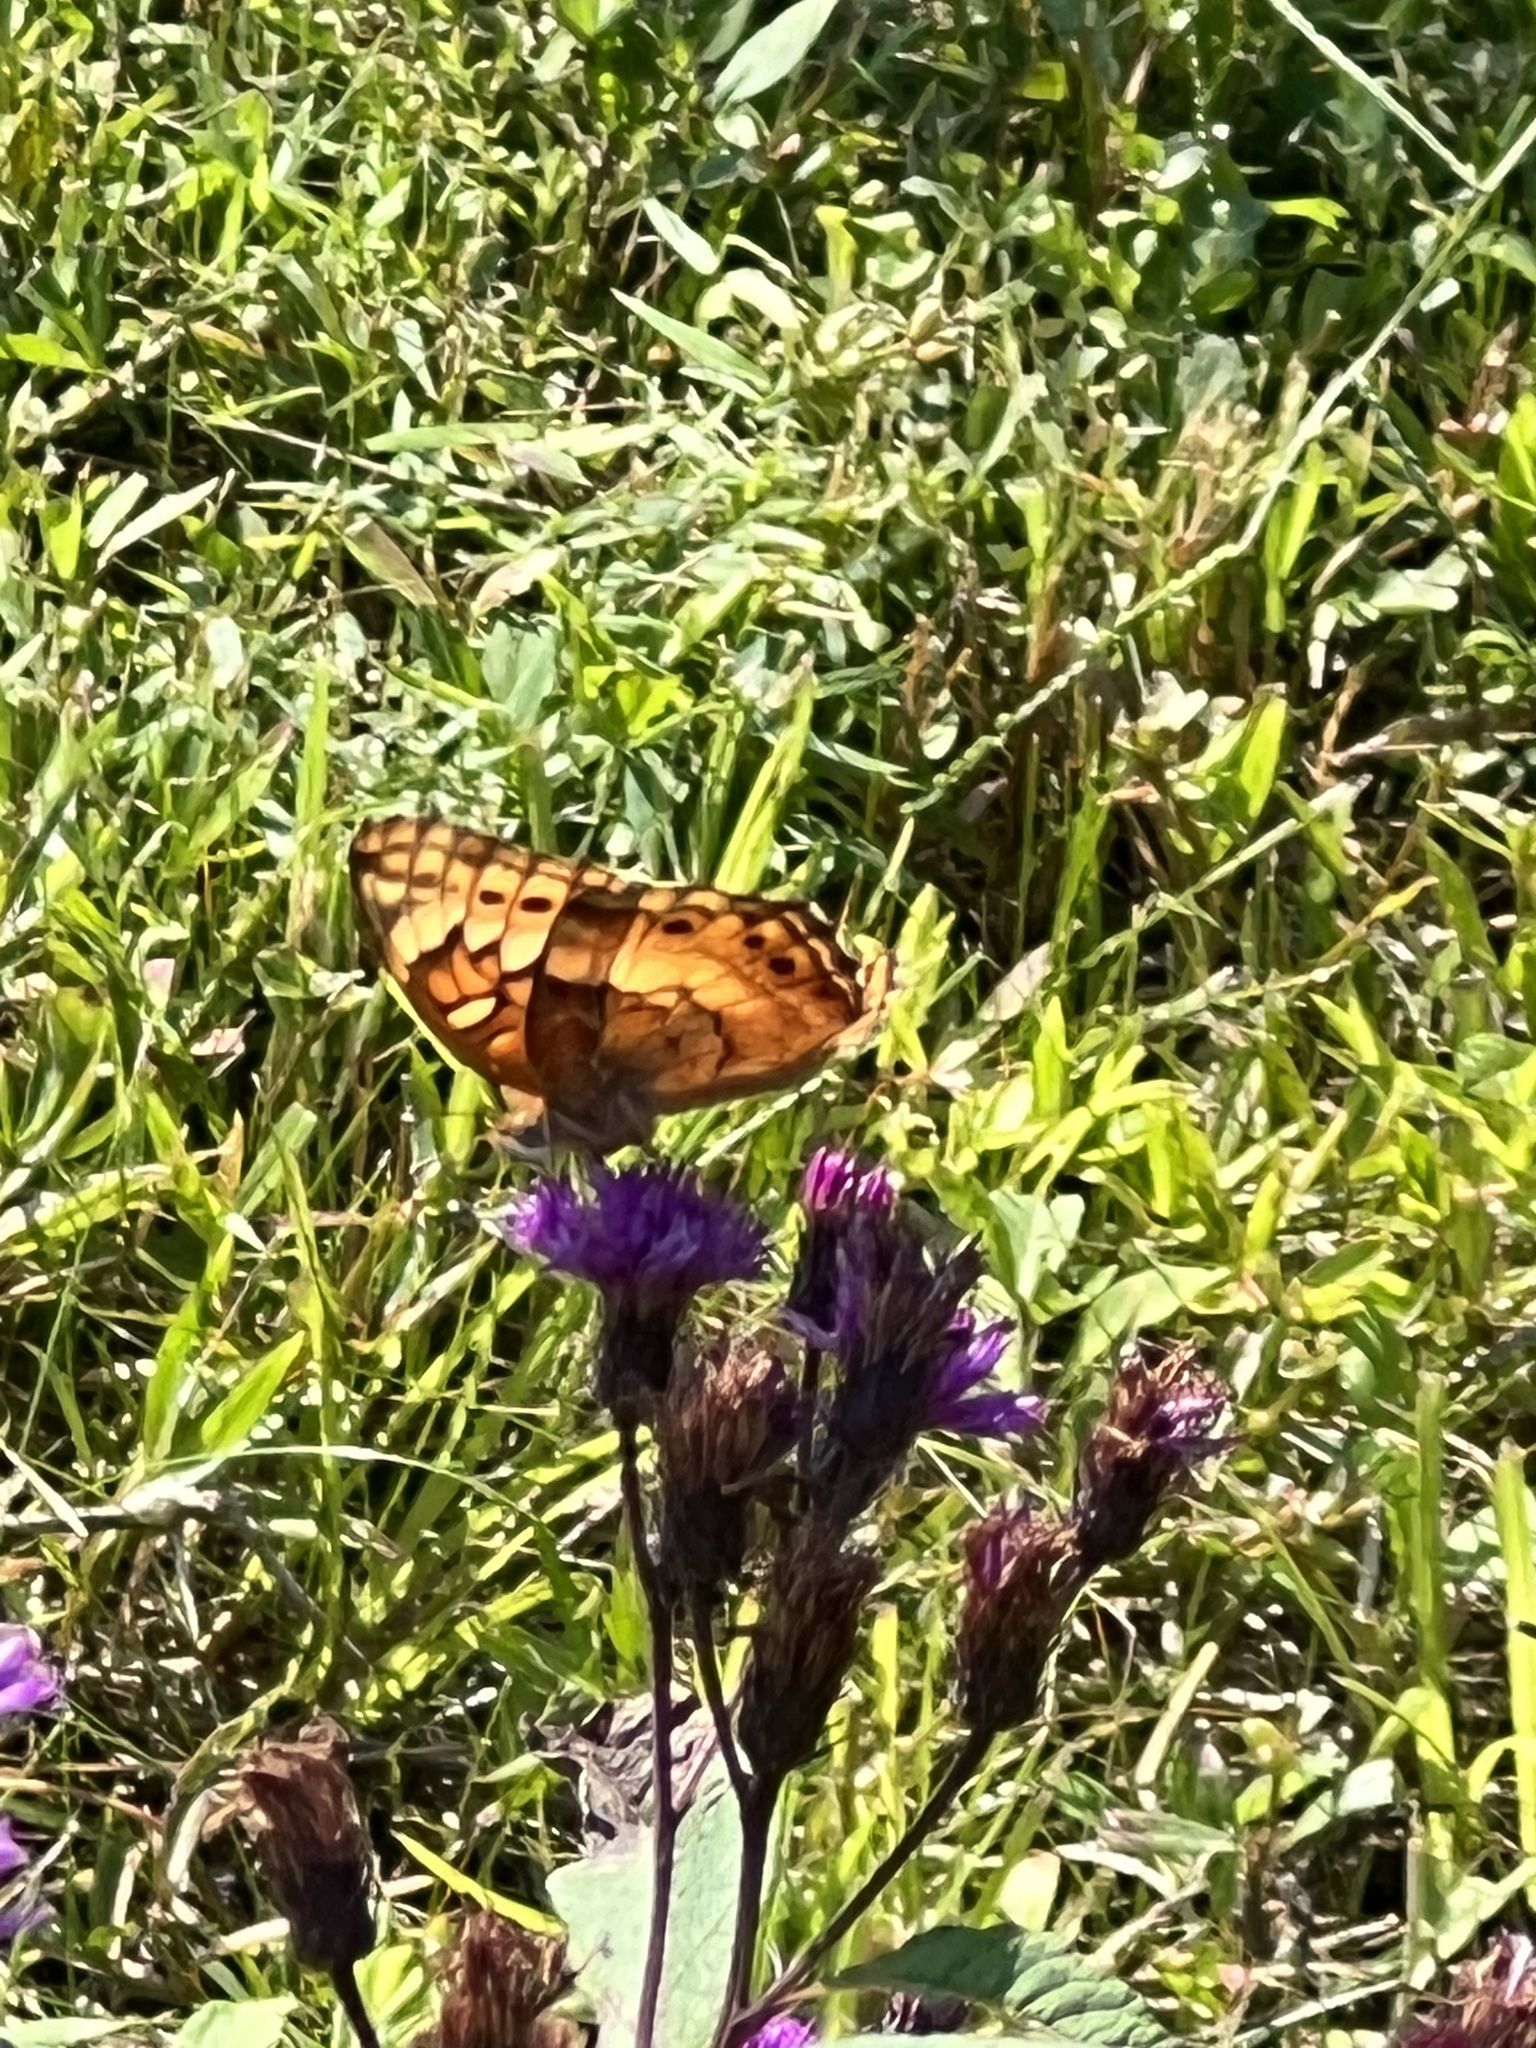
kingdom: Animalia
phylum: Arthropoda
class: Insecta
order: Lepidoptera
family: Nymphalidae
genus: Euptoieta
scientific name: Euptoieta claudia
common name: Variegated fritillary
